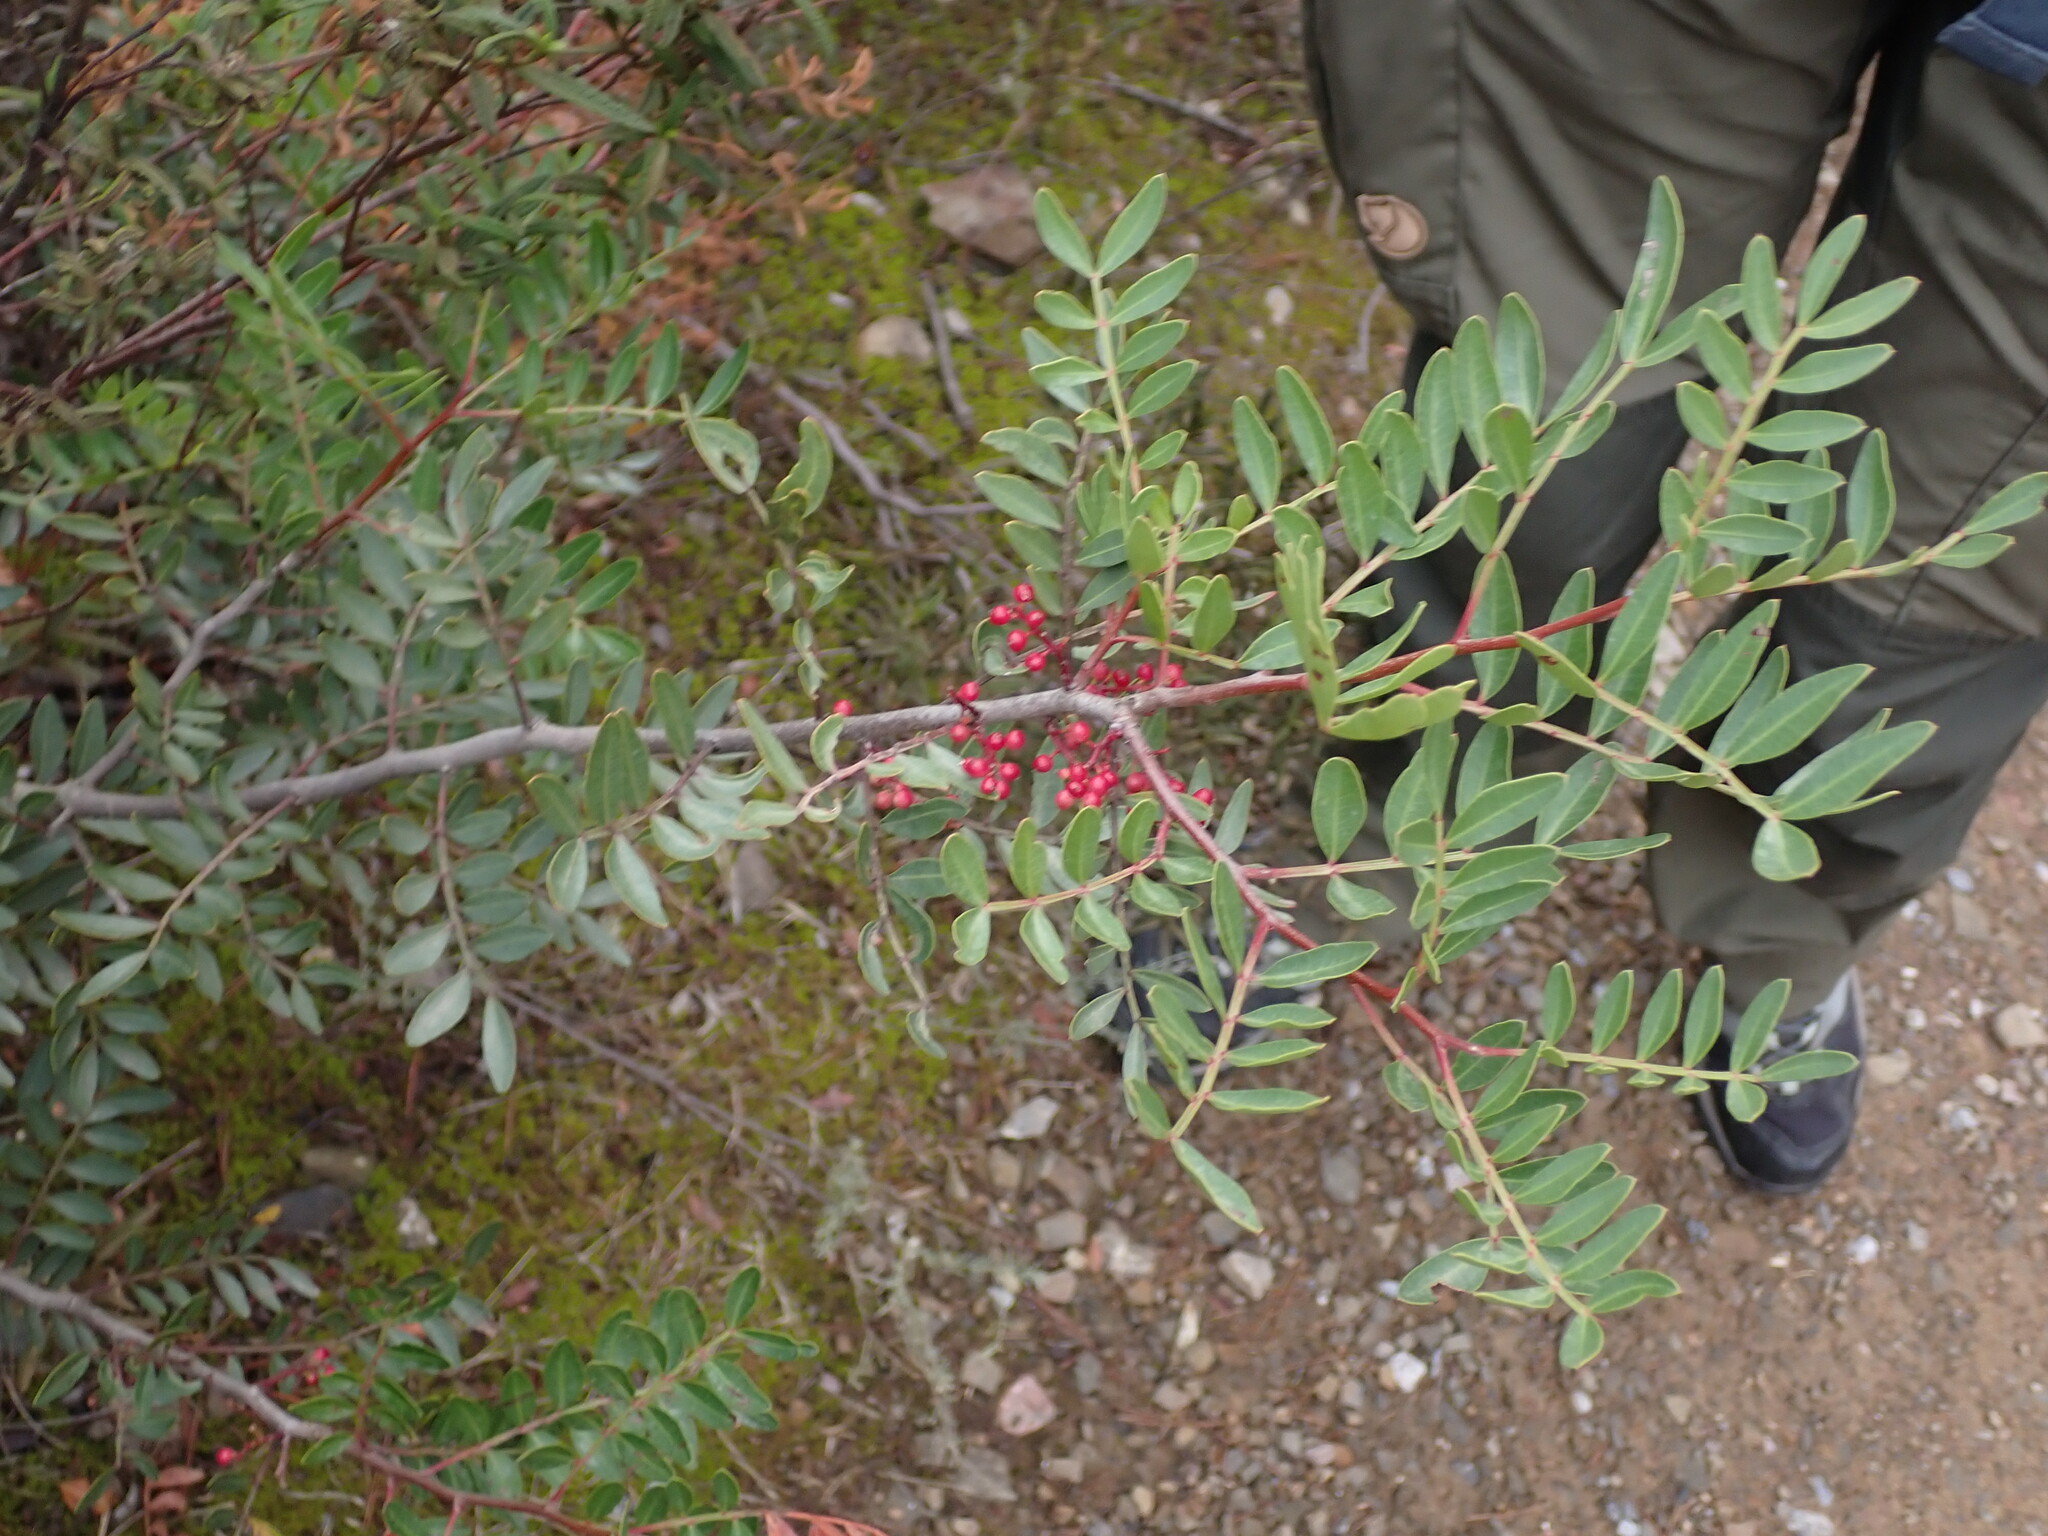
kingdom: Plantae
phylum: Tracheophyta
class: Magnoliopsida
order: Sapindales
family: Anacardiaceae
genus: Pistacia
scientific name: Pistacia lentiscus
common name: Lentisk
